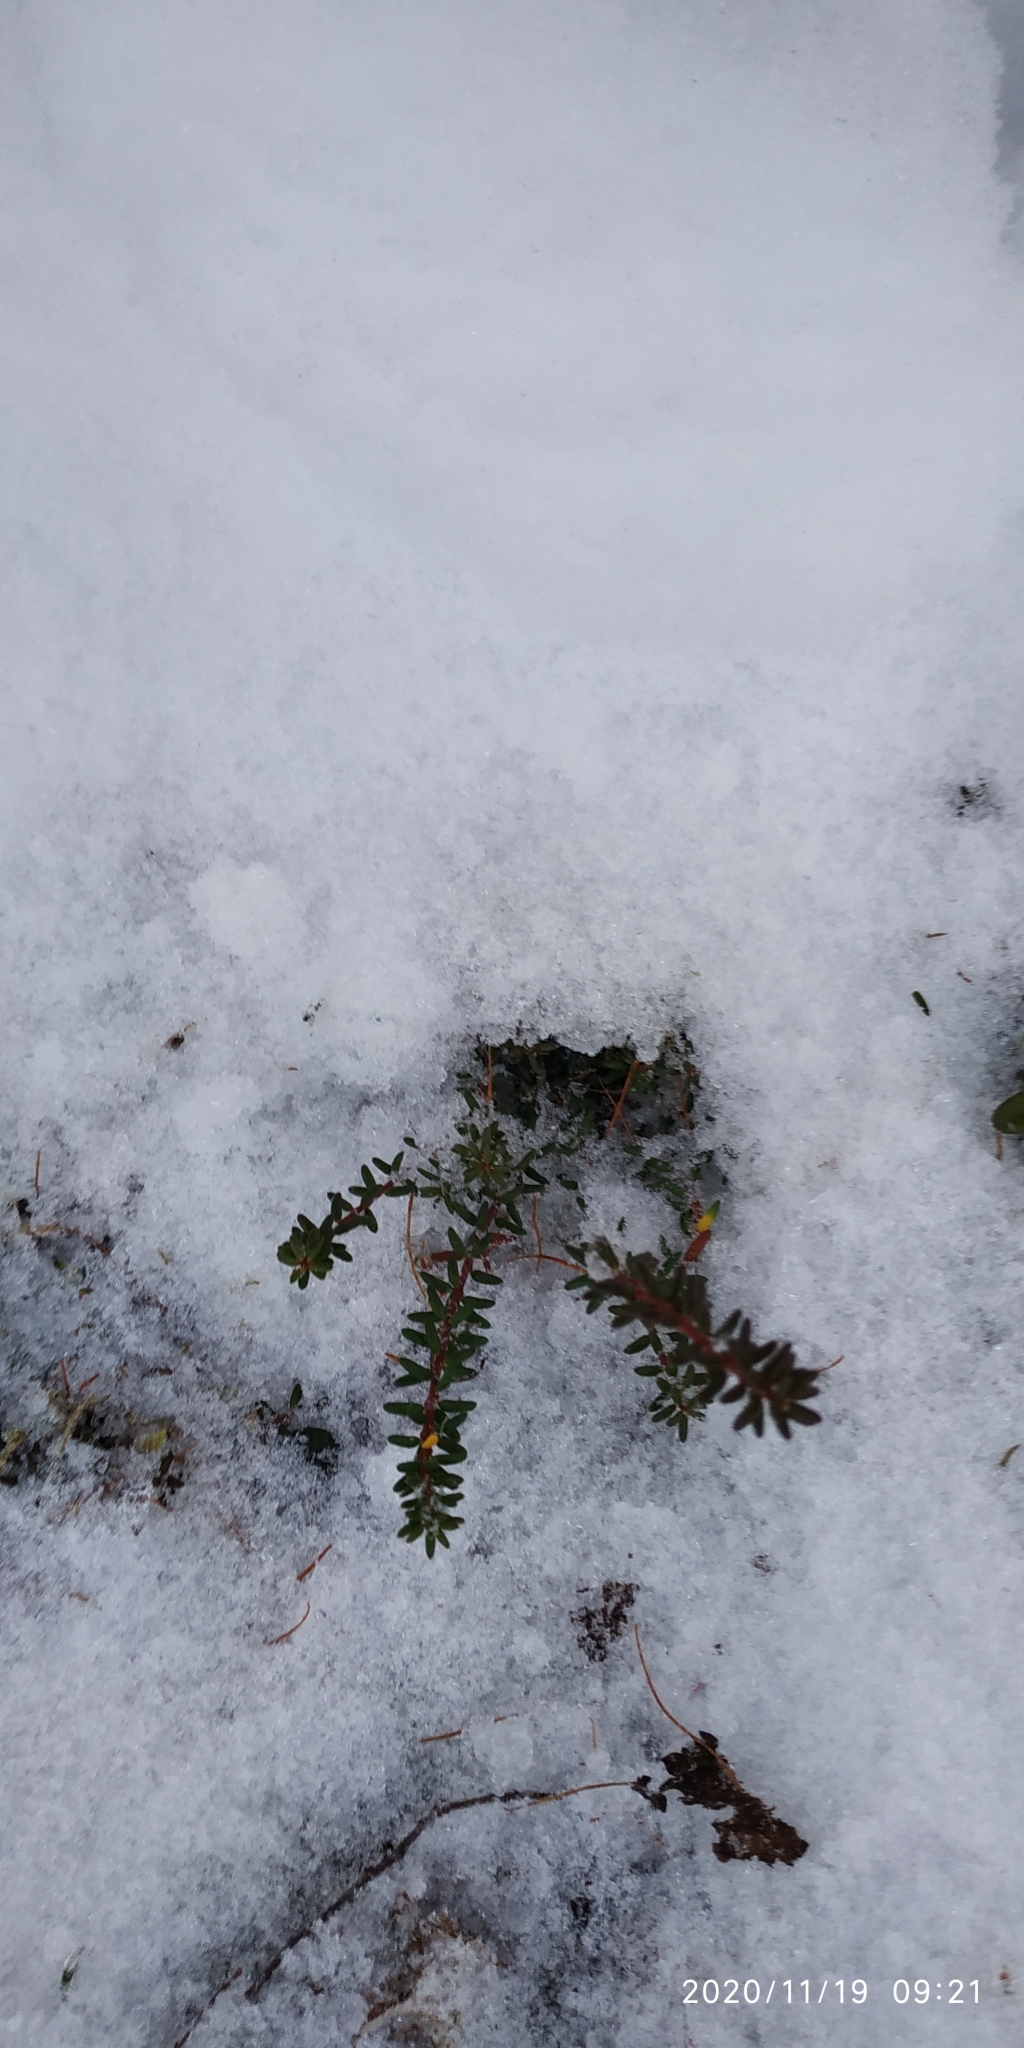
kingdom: Plantae
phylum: Tracheophyta
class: Magnoliopsida
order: Ericales
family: Ericaceae
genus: Empetrum
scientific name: Empetrum nigrum
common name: Black crowberry
